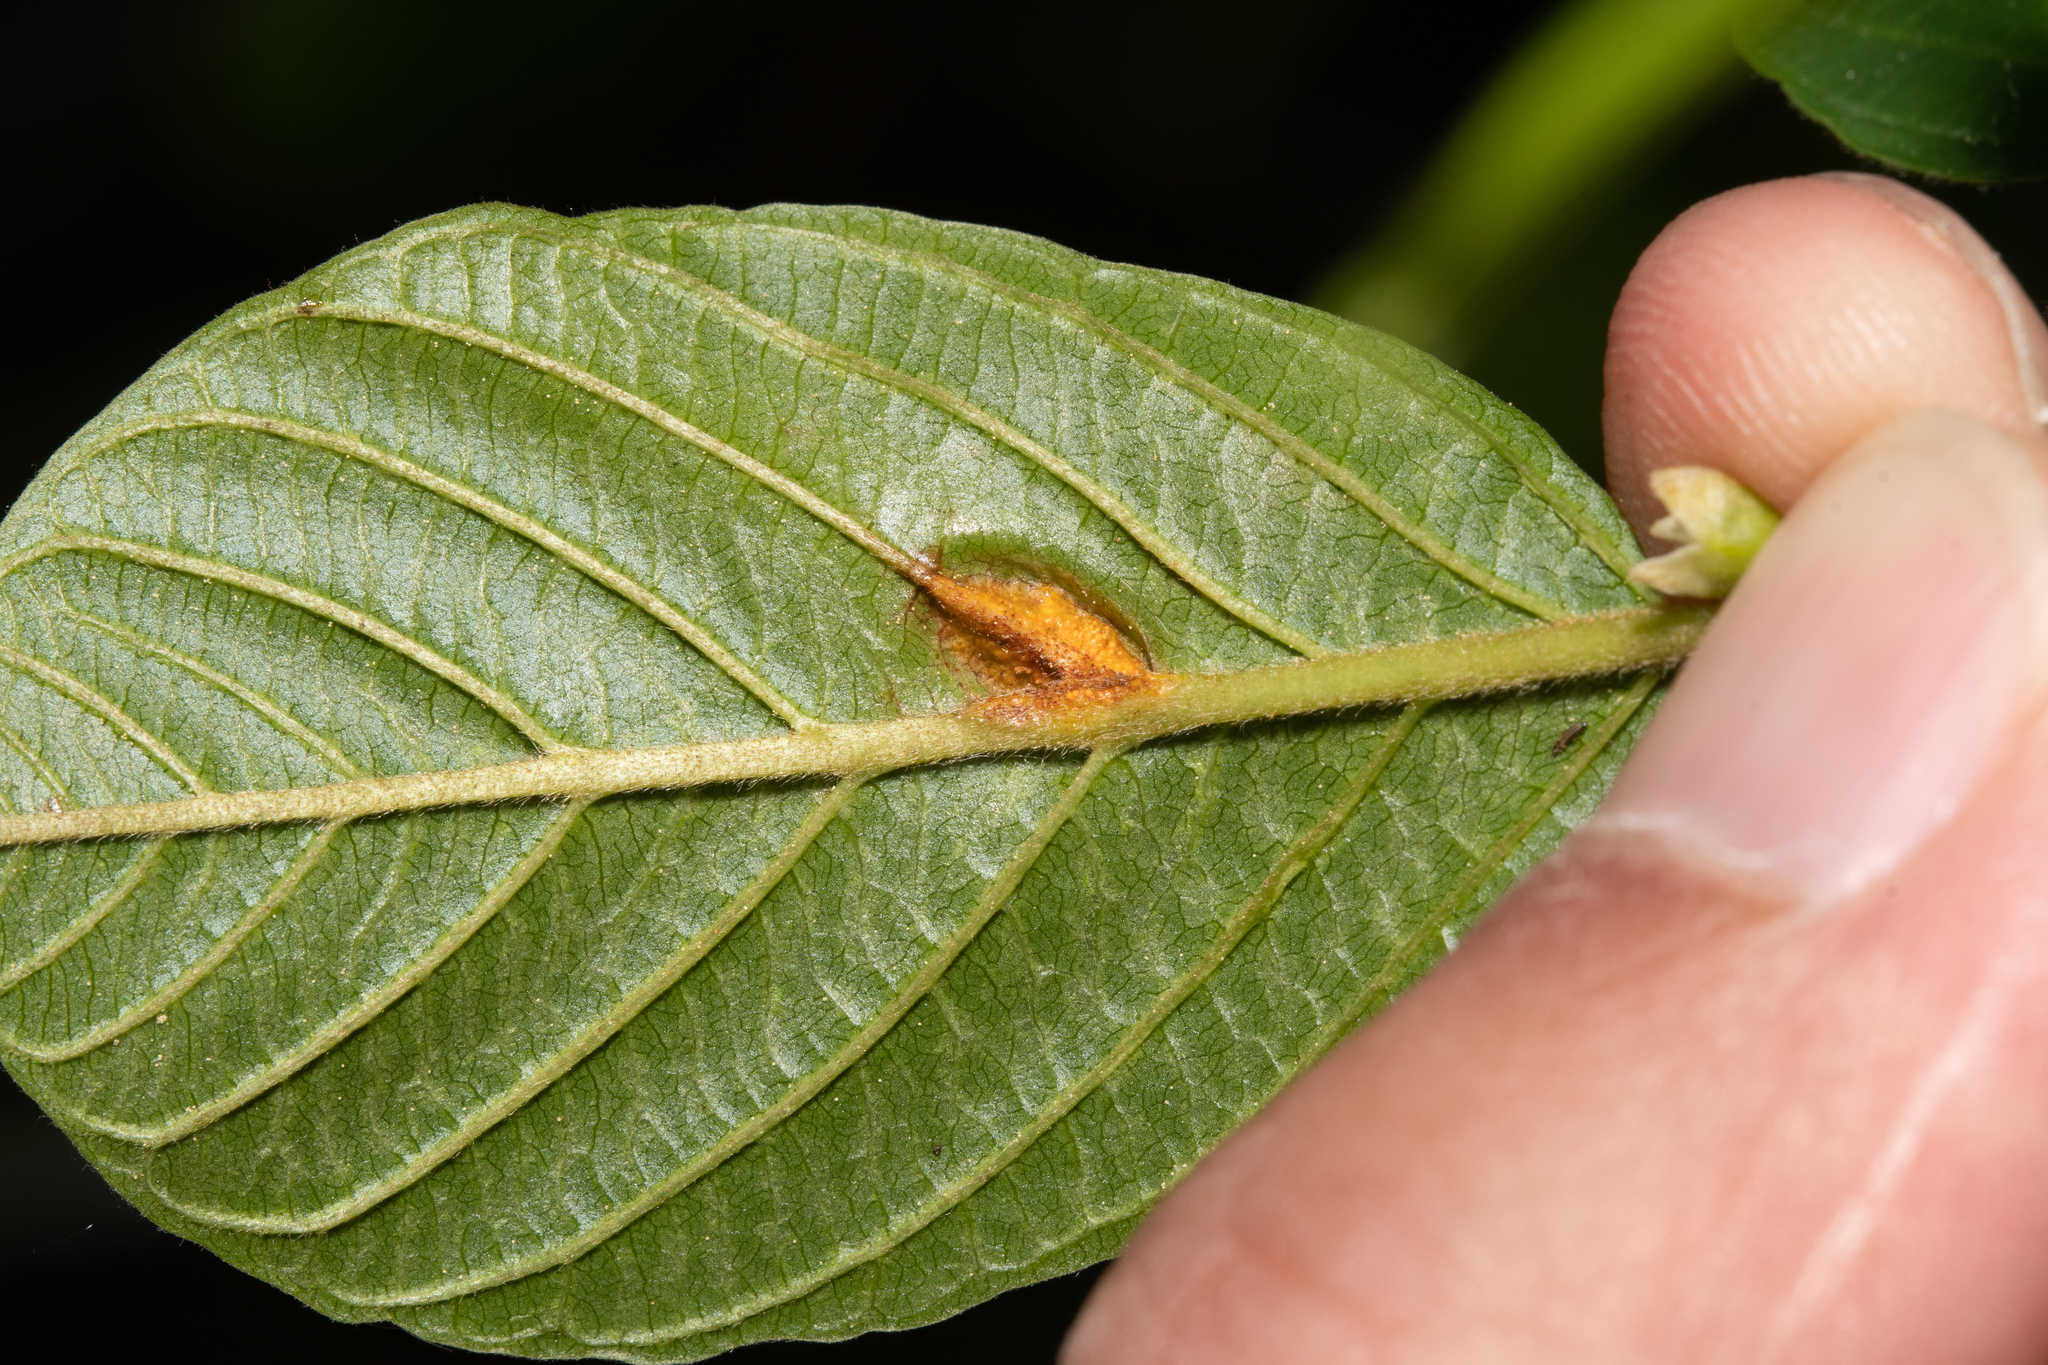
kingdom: Fungi
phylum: Basidiomycota
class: Pucciniomycetes
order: Pucciniales
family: Pucciniaceae
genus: Puccinia
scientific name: Puccinia coronata
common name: Crown rust
